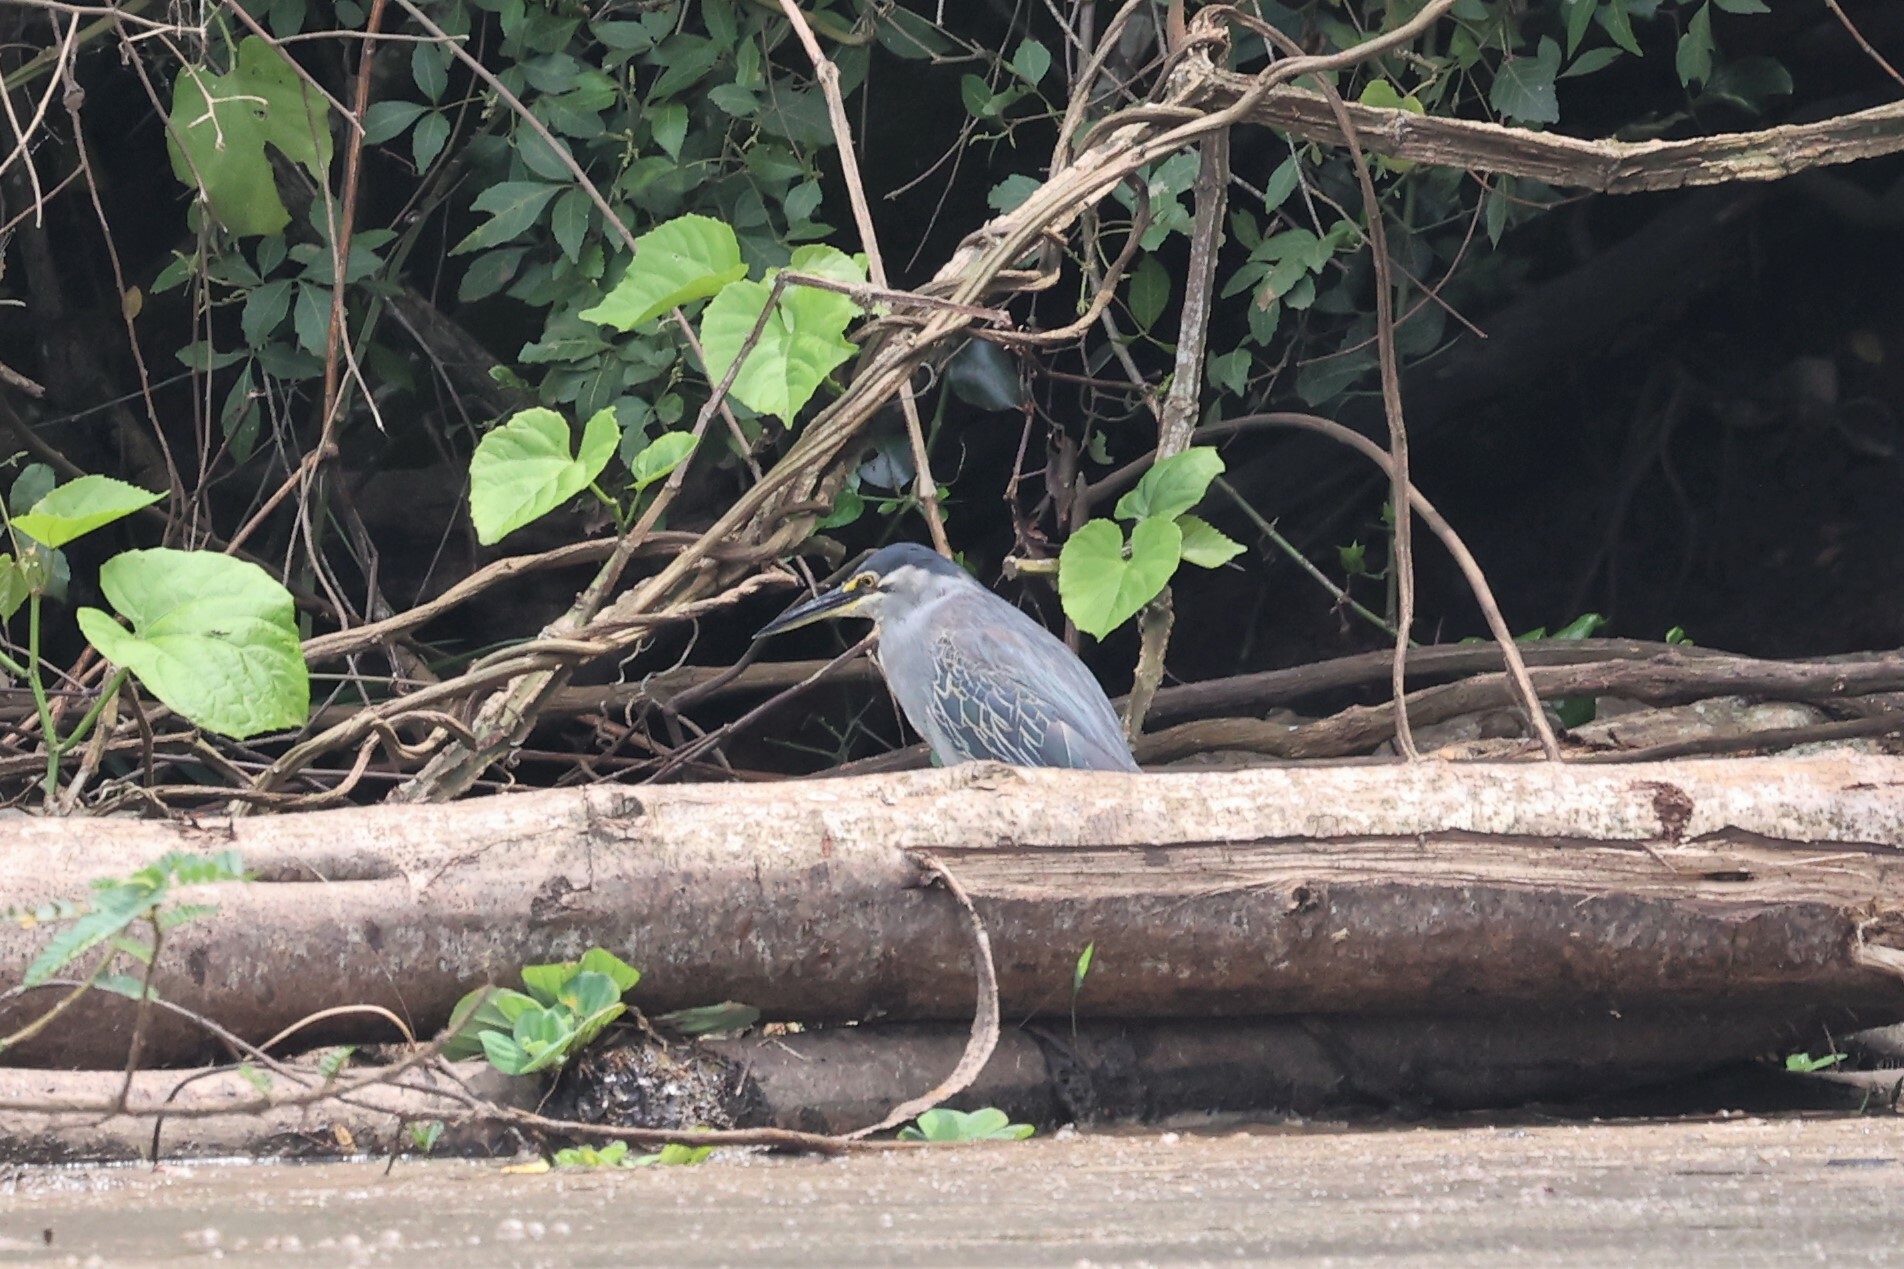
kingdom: Animalia
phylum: Chordata
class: Aves
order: Pelecaniformes
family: Ardeidae
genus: Butorides
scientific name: Butorides striata
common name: Striated heron
